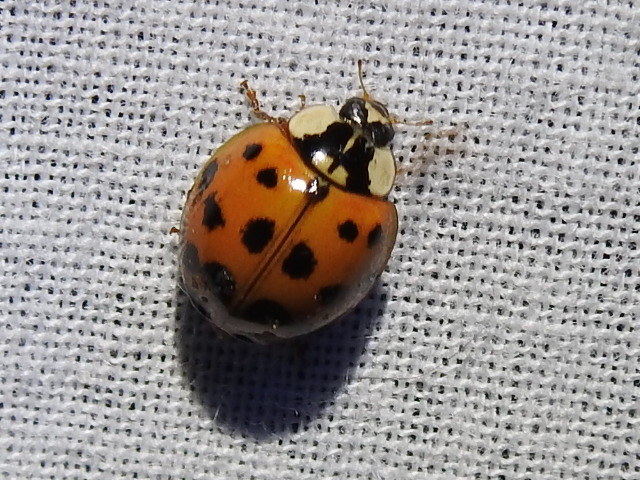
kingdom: Animalia
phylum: Arthropoda
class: Insecta
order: Coleoptera
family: Coccinellidae
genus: Harmonia
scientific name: Harmonia axyridis
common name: Harlequin ladybird
